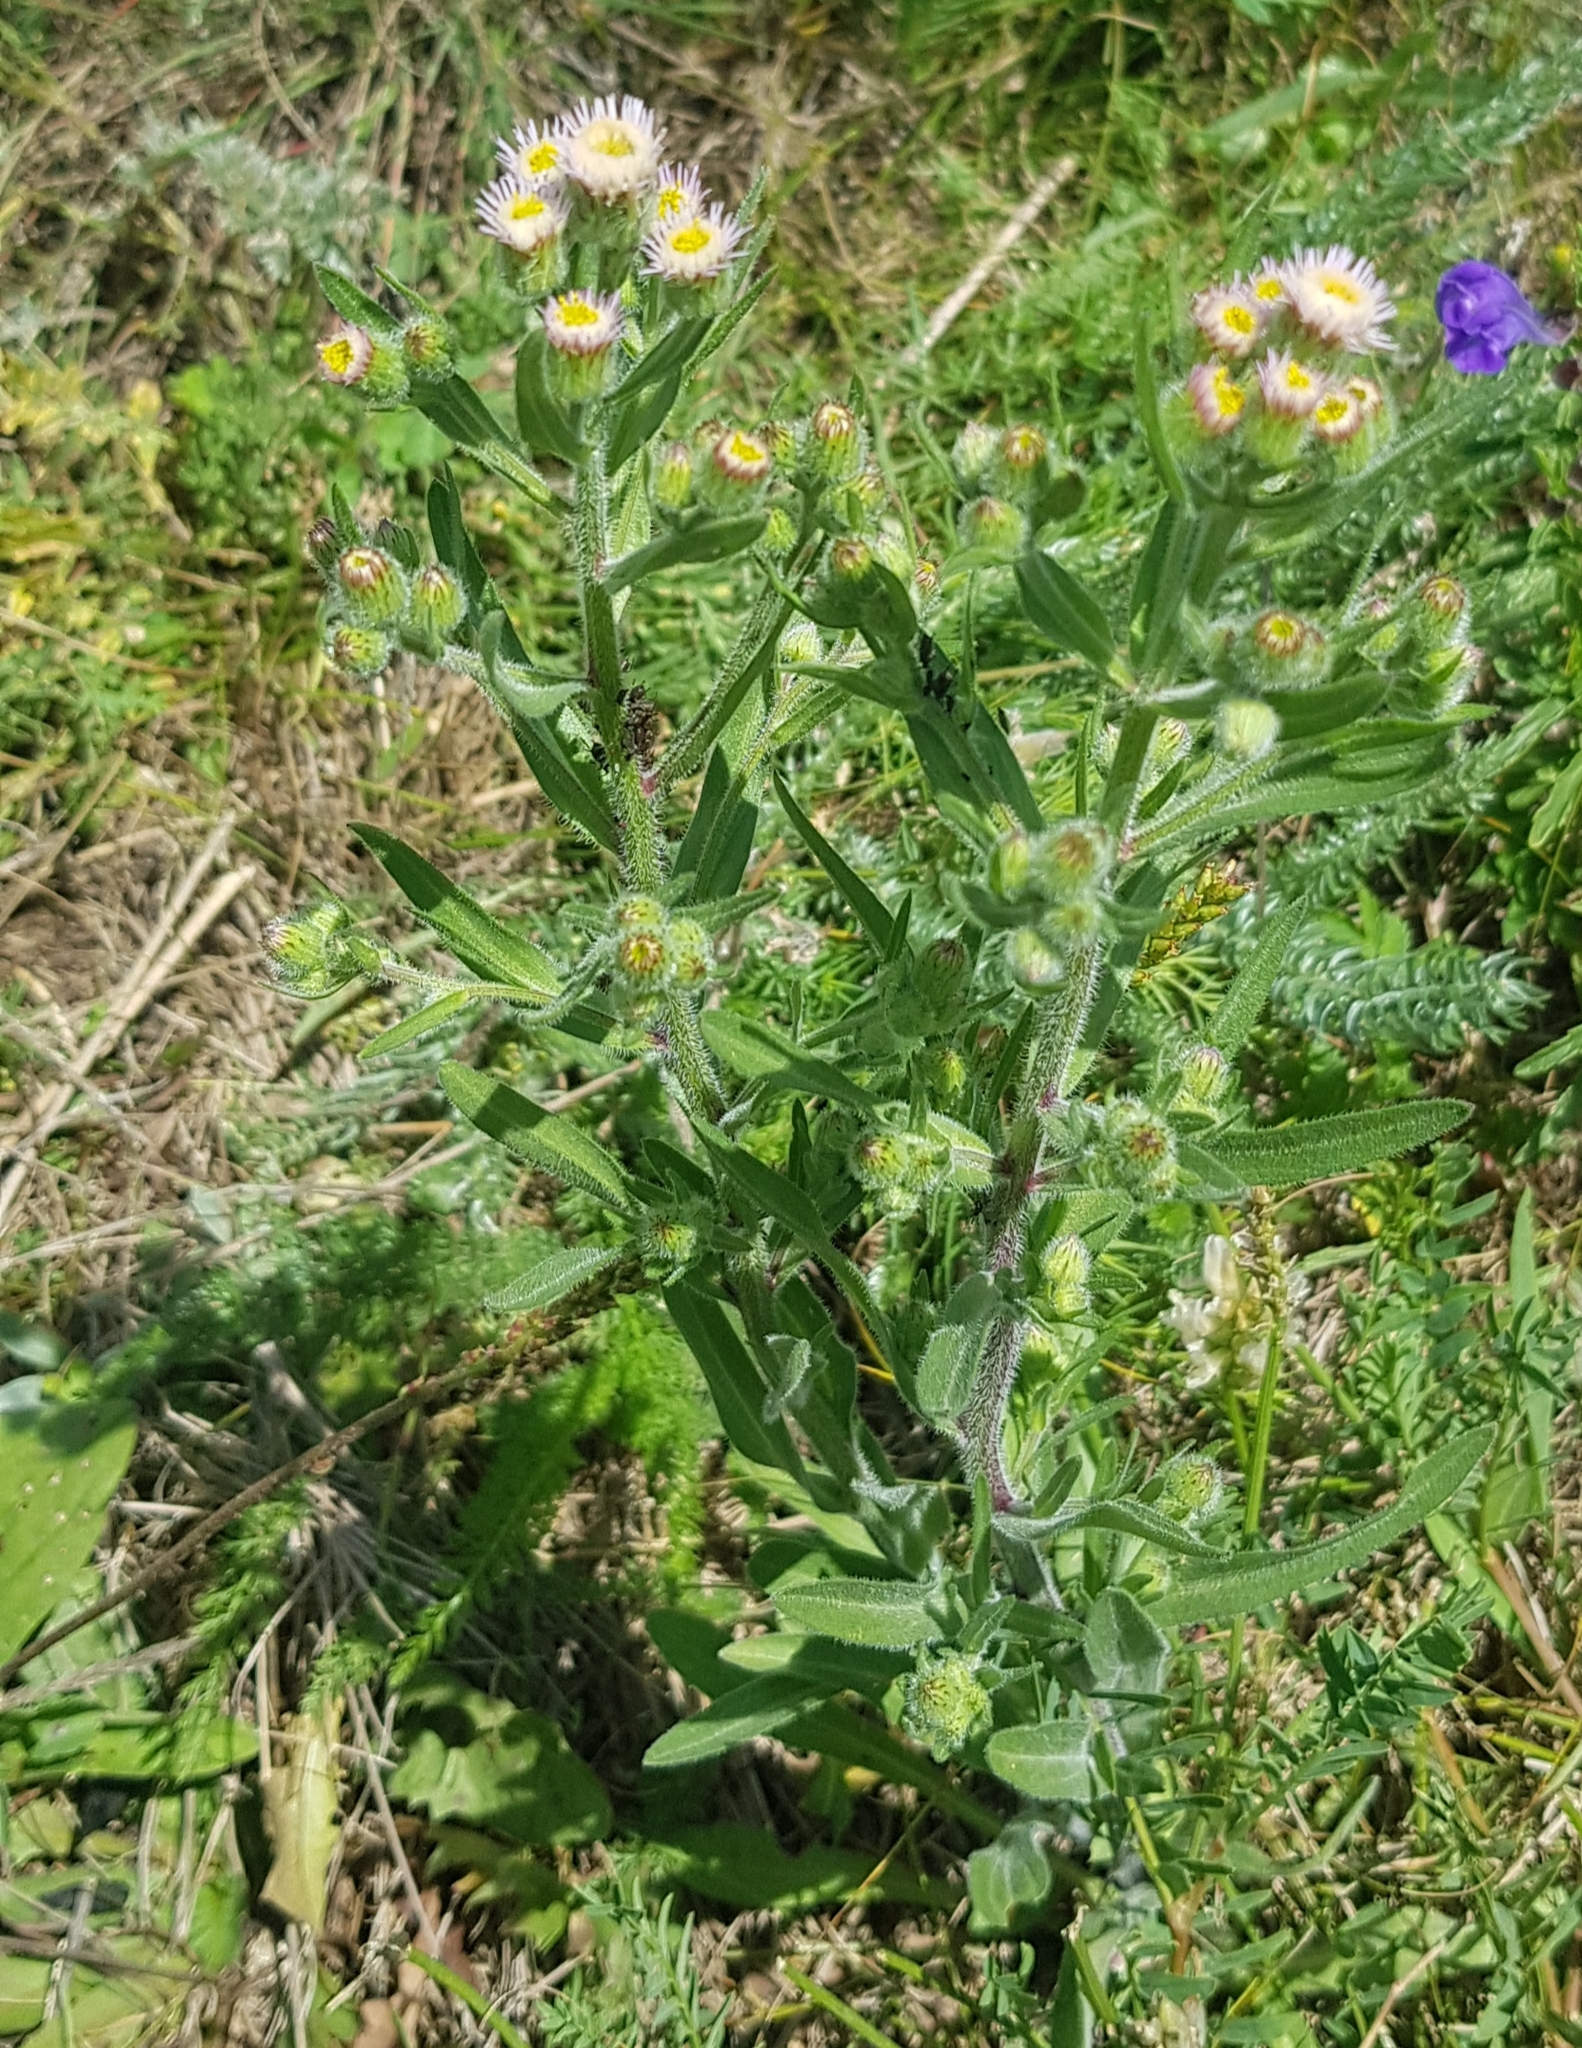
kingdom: Plantae
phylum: Tracheophyta
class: Magnoliopsida
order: Asterales
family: Asteraceae
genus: Erigeron
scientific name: Erigeron acris
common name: Blue fleabane
